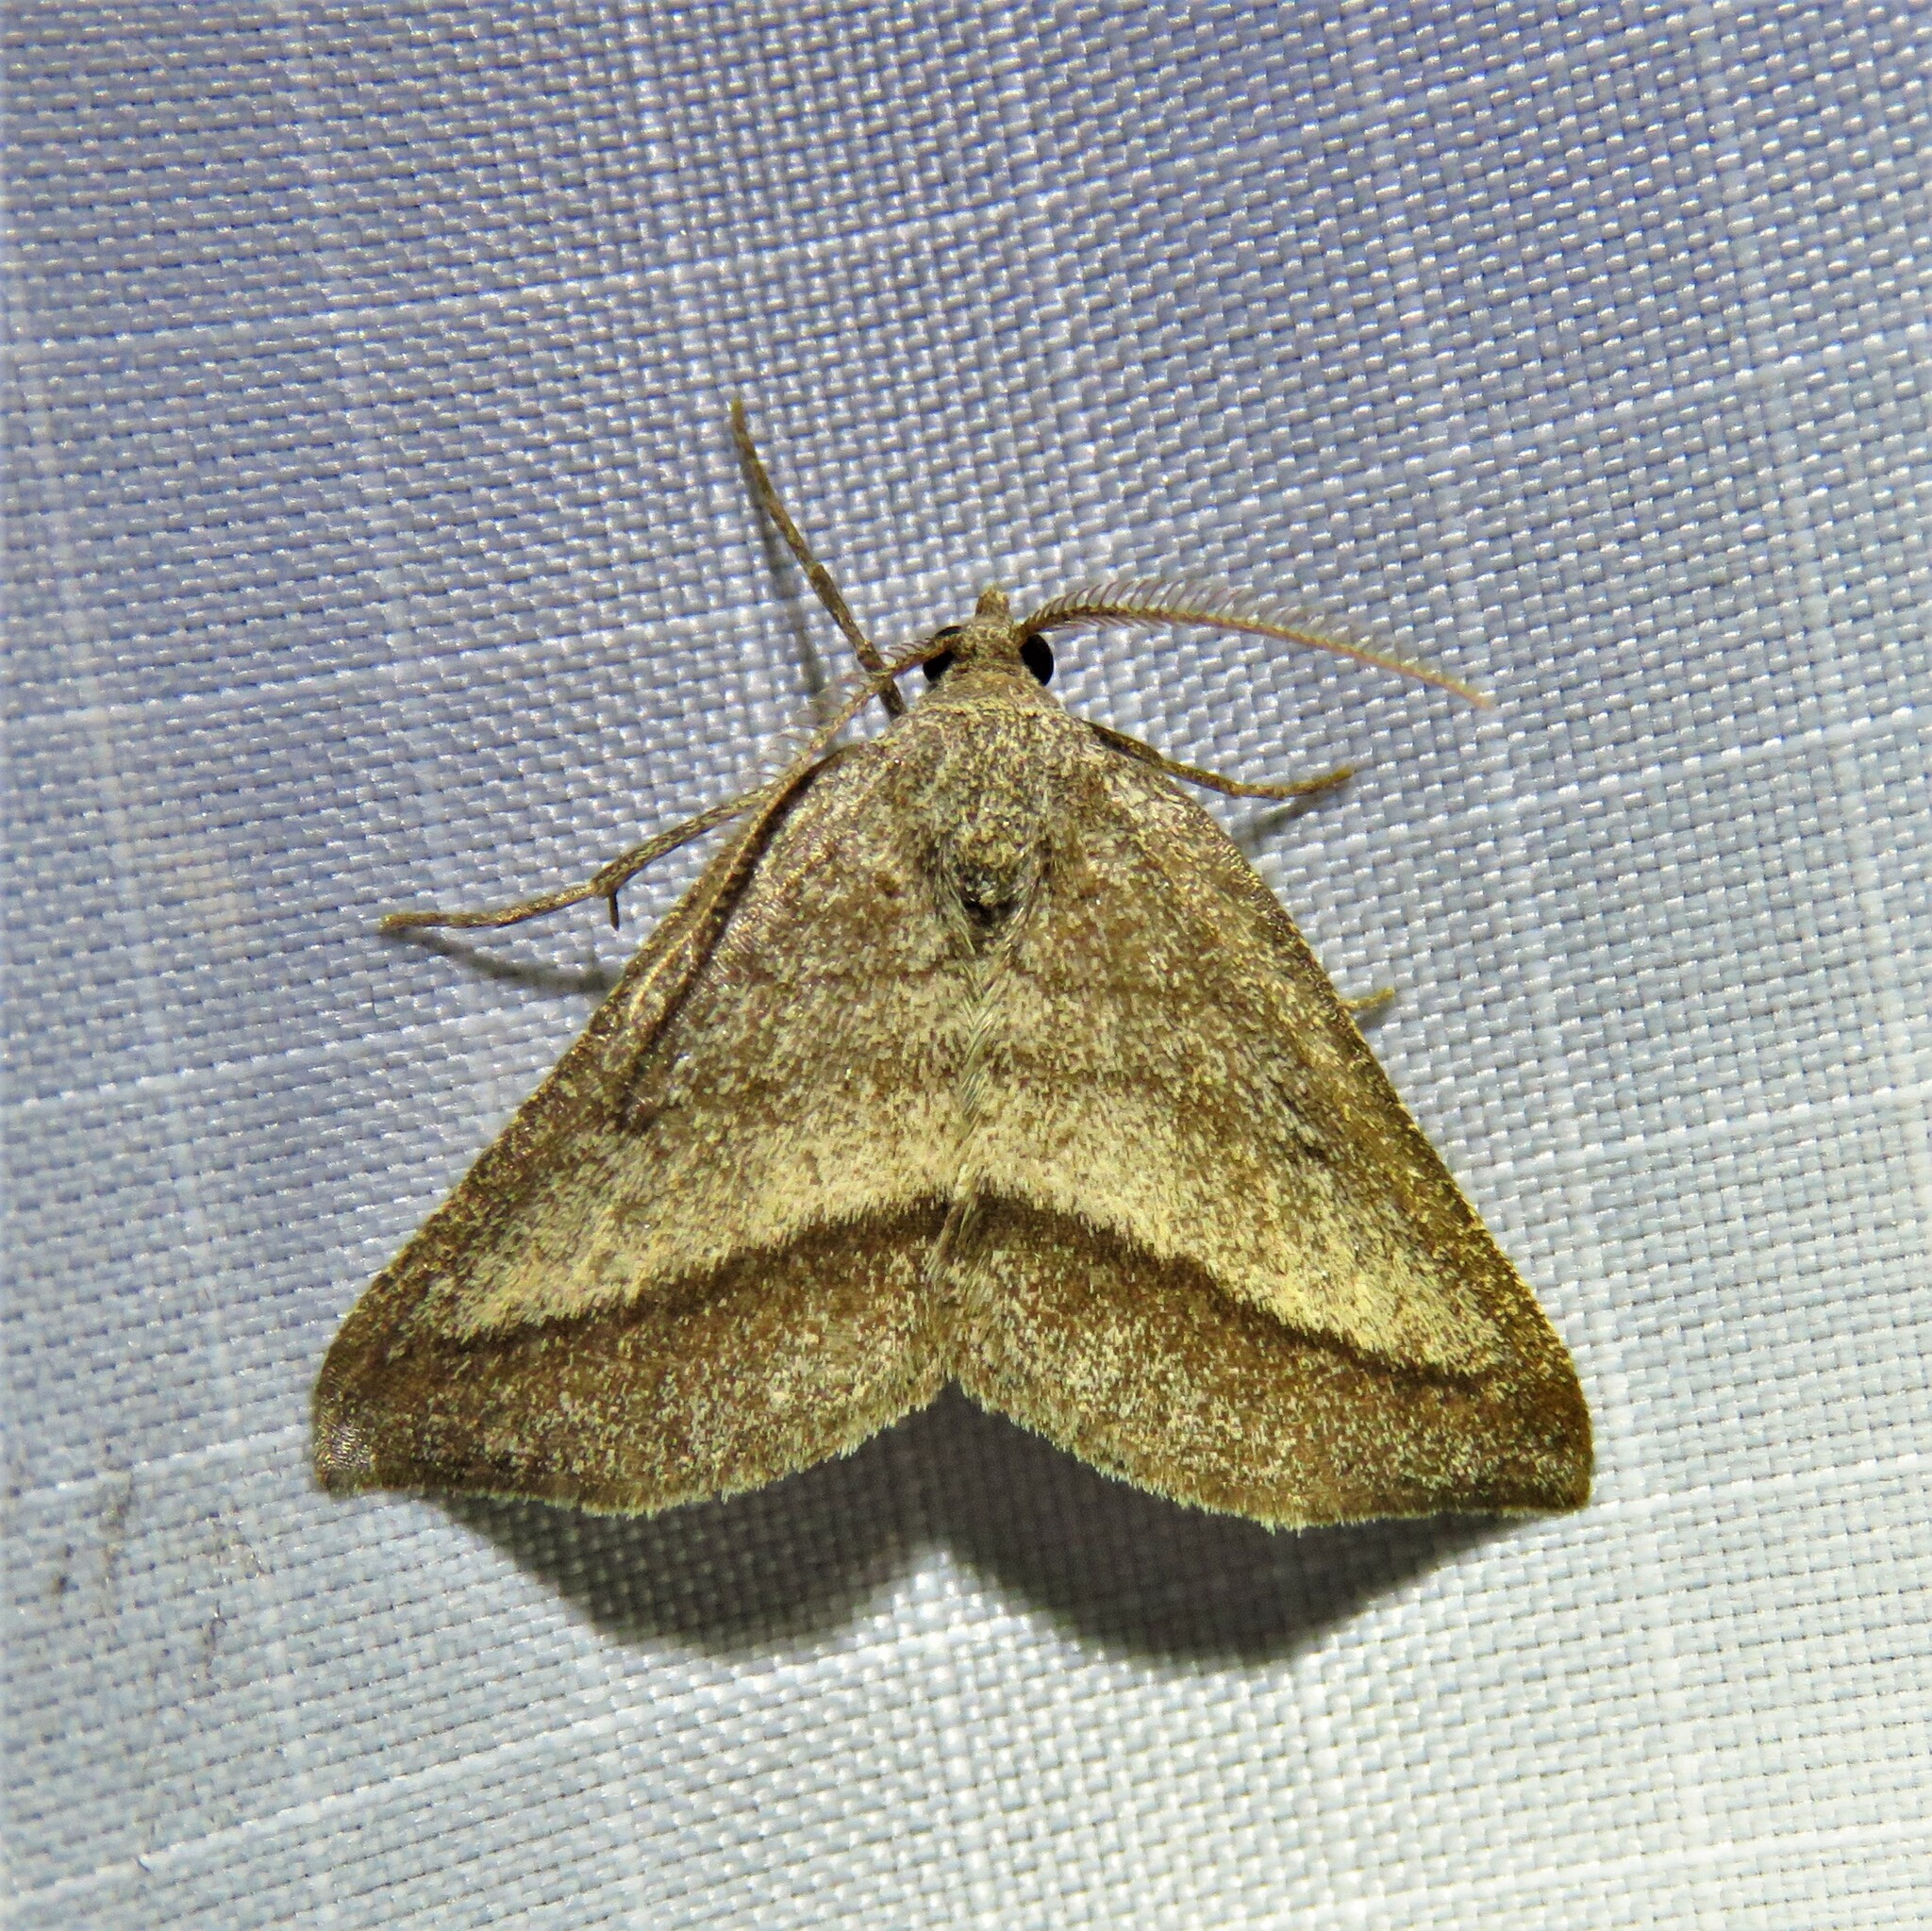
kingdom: Animalia
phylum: Arthropoda
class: Insecta
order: Lepidoptera
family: Geometridae
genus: Macaria
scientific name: Macaria varadaria
